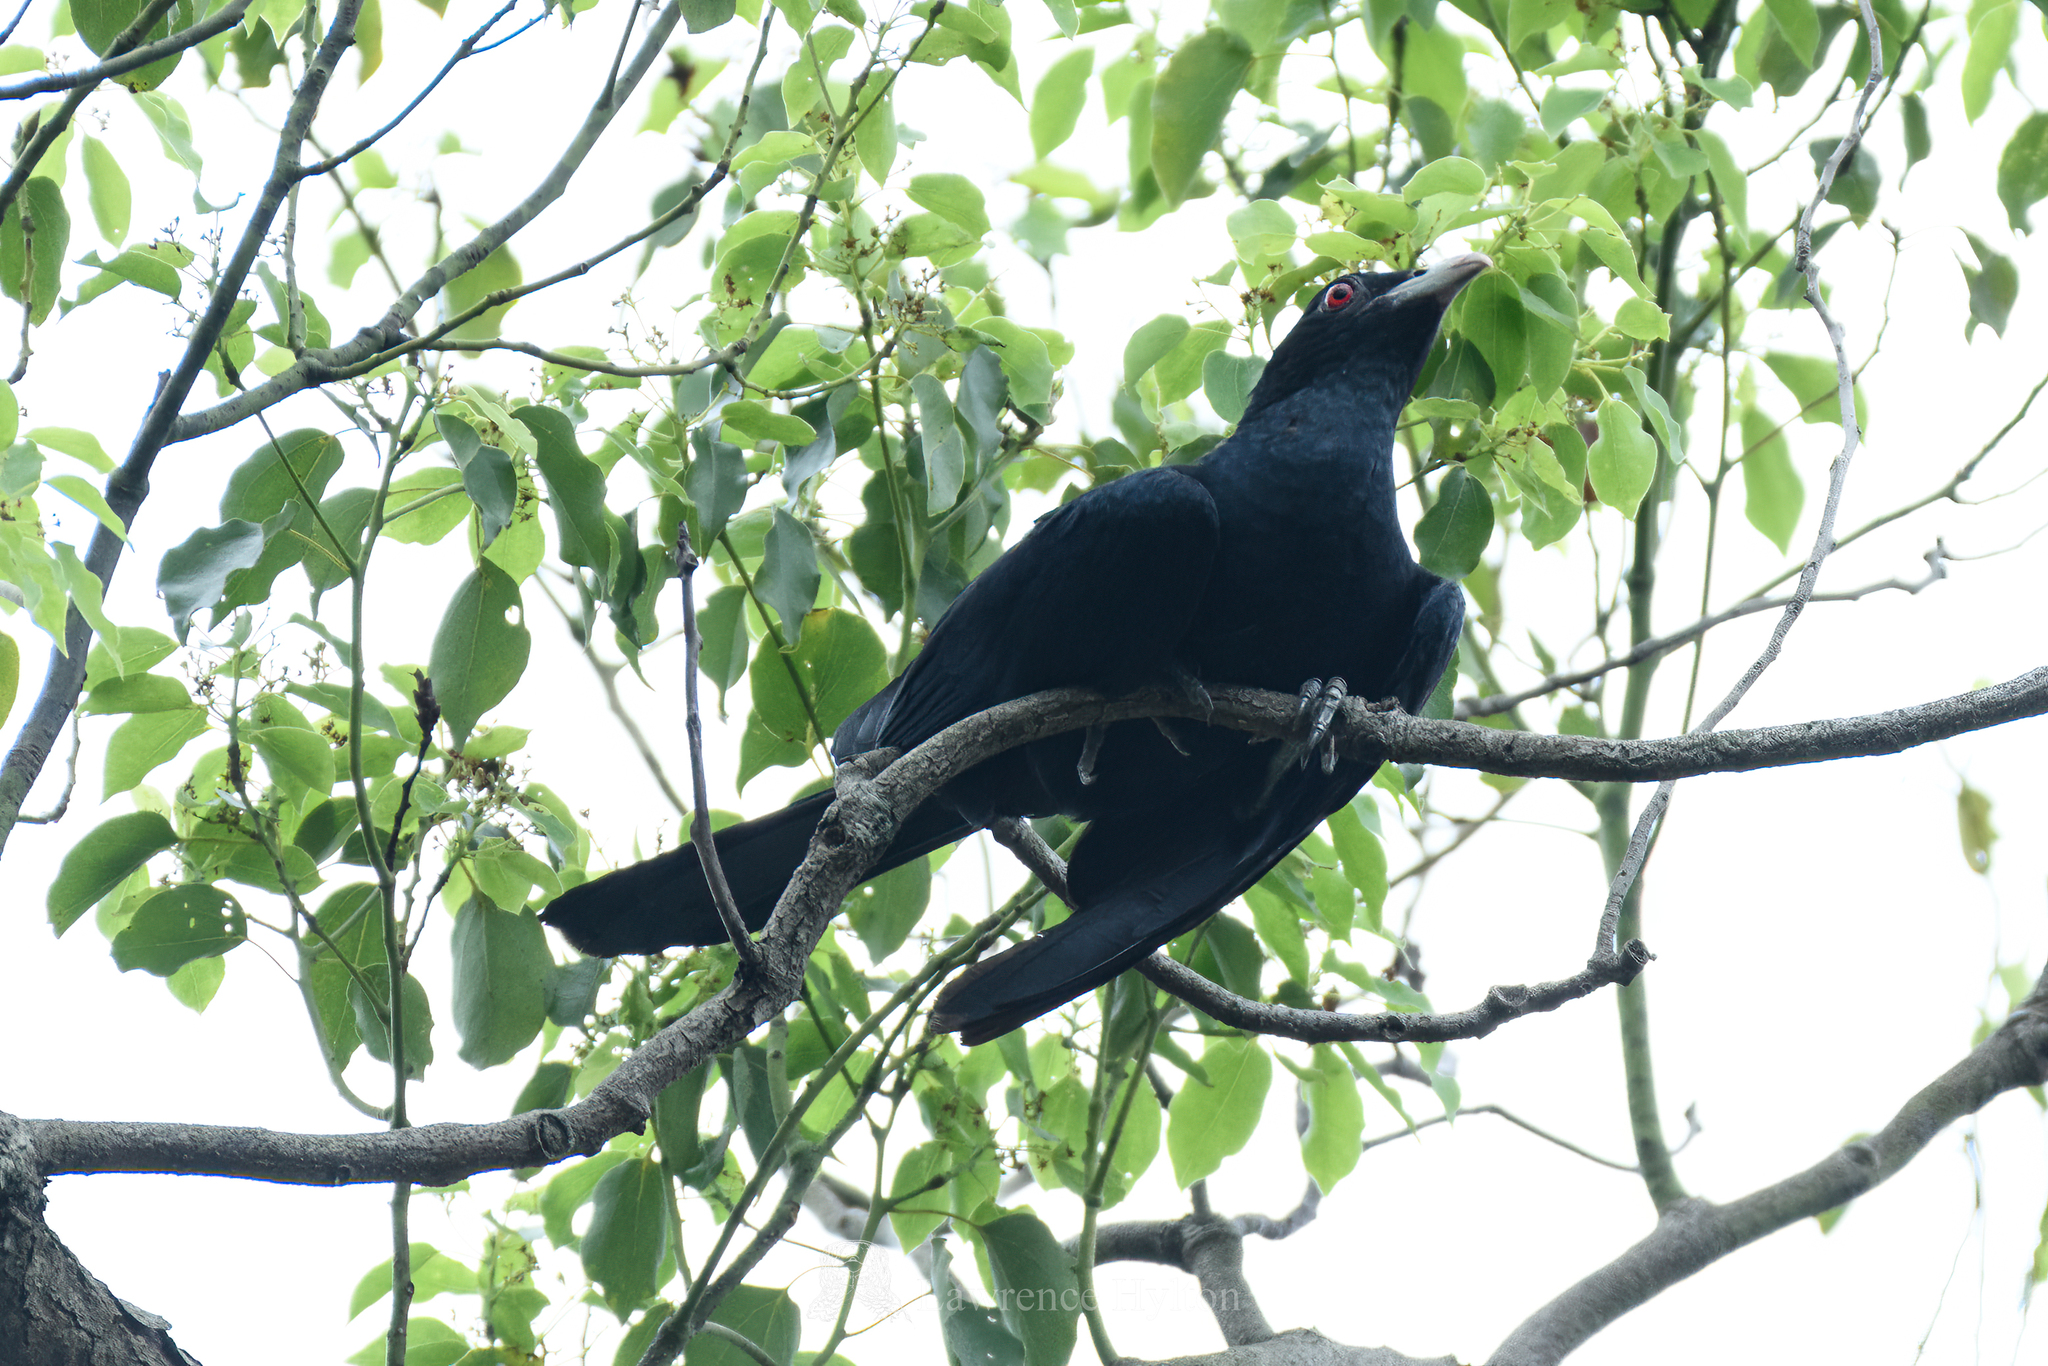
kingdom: Animalia
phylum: Chordata
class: Aves
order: Cuculiformes
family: Cuculidae
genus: Eudynamys
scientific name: Eudynamys scolopaceus
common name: Asian koel
